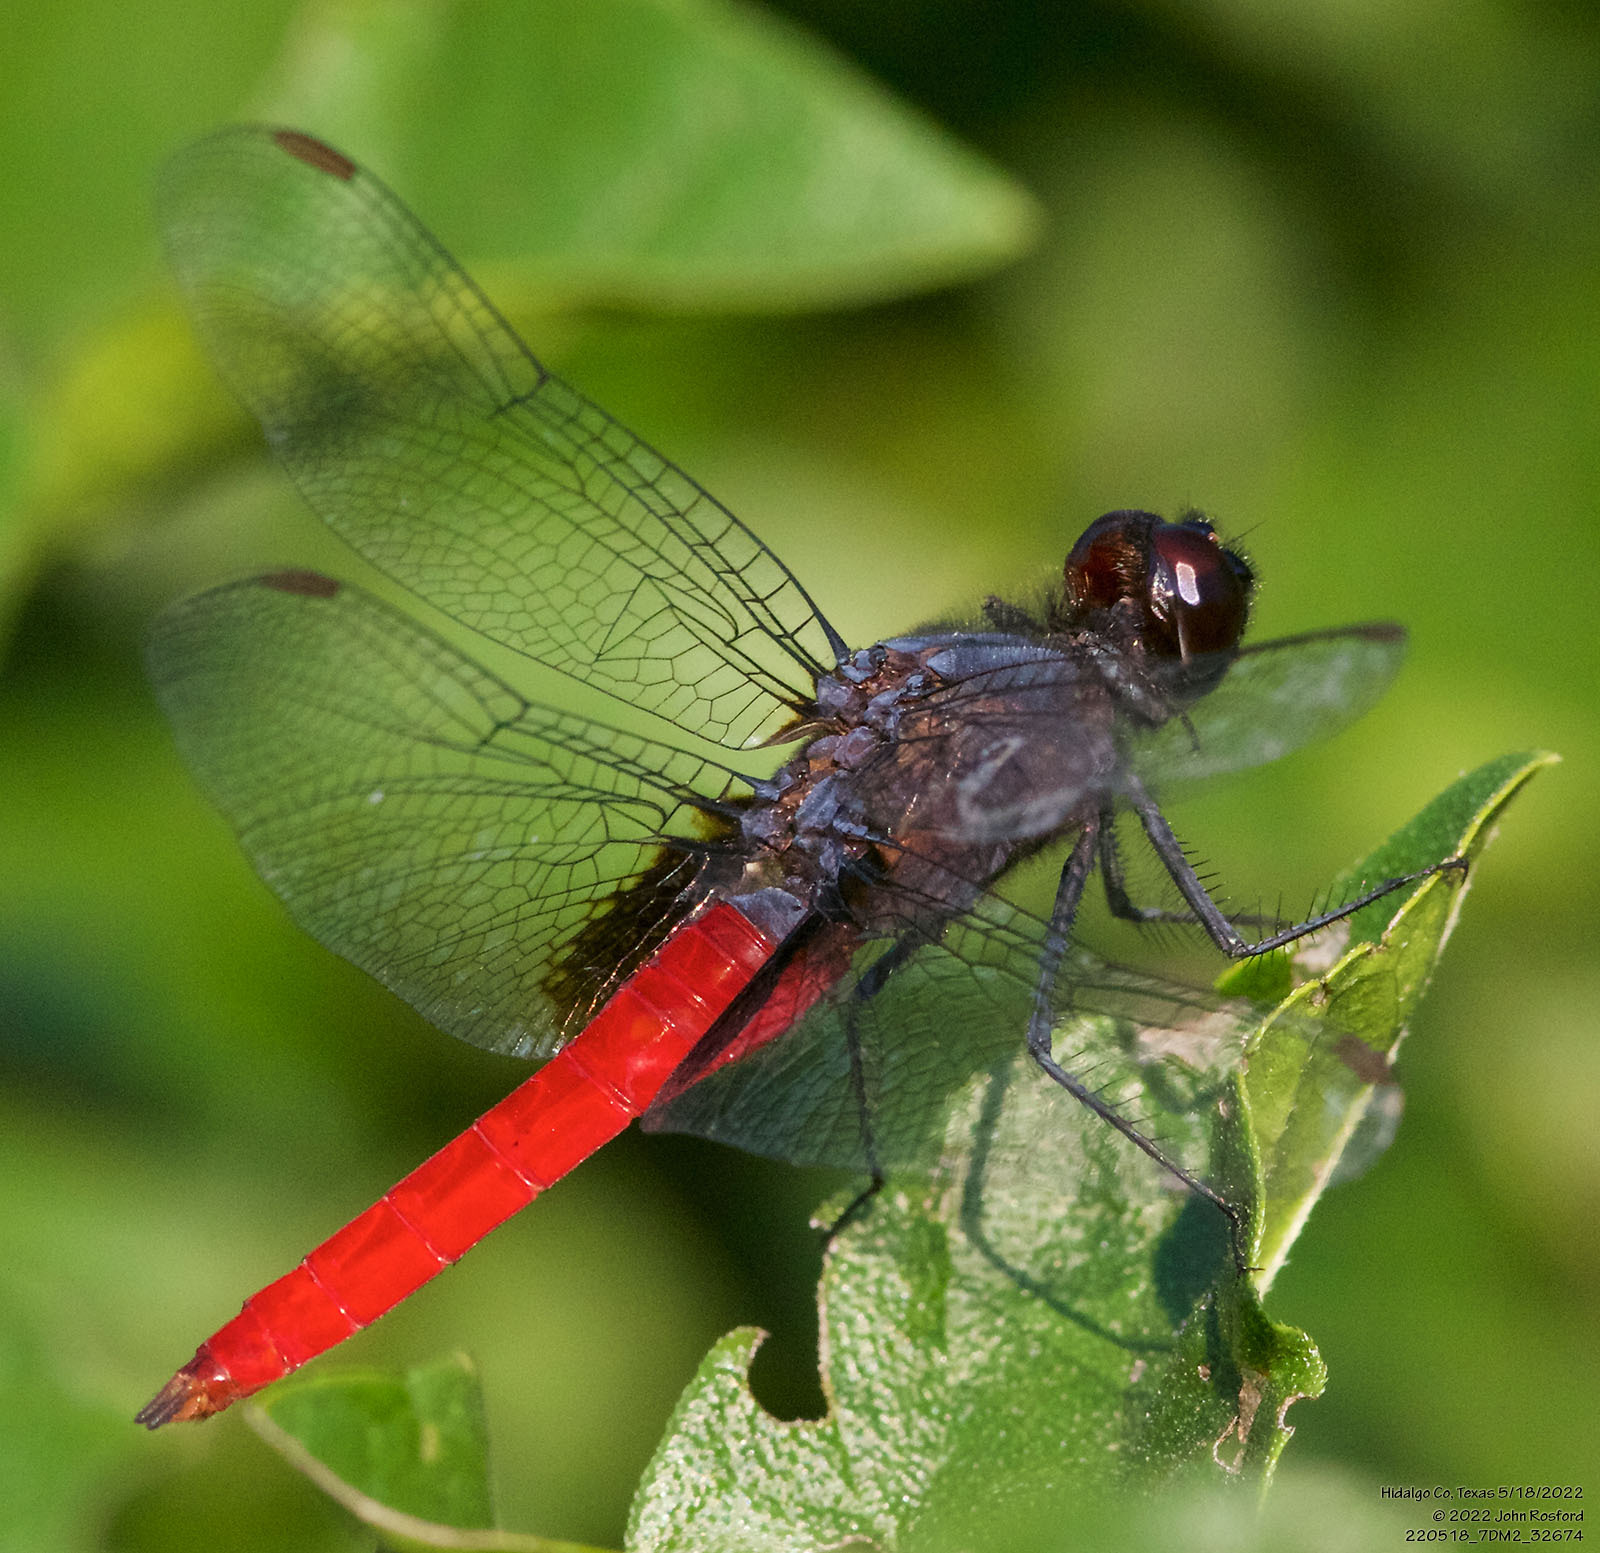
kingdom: Animalia
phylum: Arthropoda
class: Insecta
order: Odonata
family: Libellulidae
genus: Planiplax
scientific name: Planiplax sanguiniventris
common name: Mexican scarlet-tail
